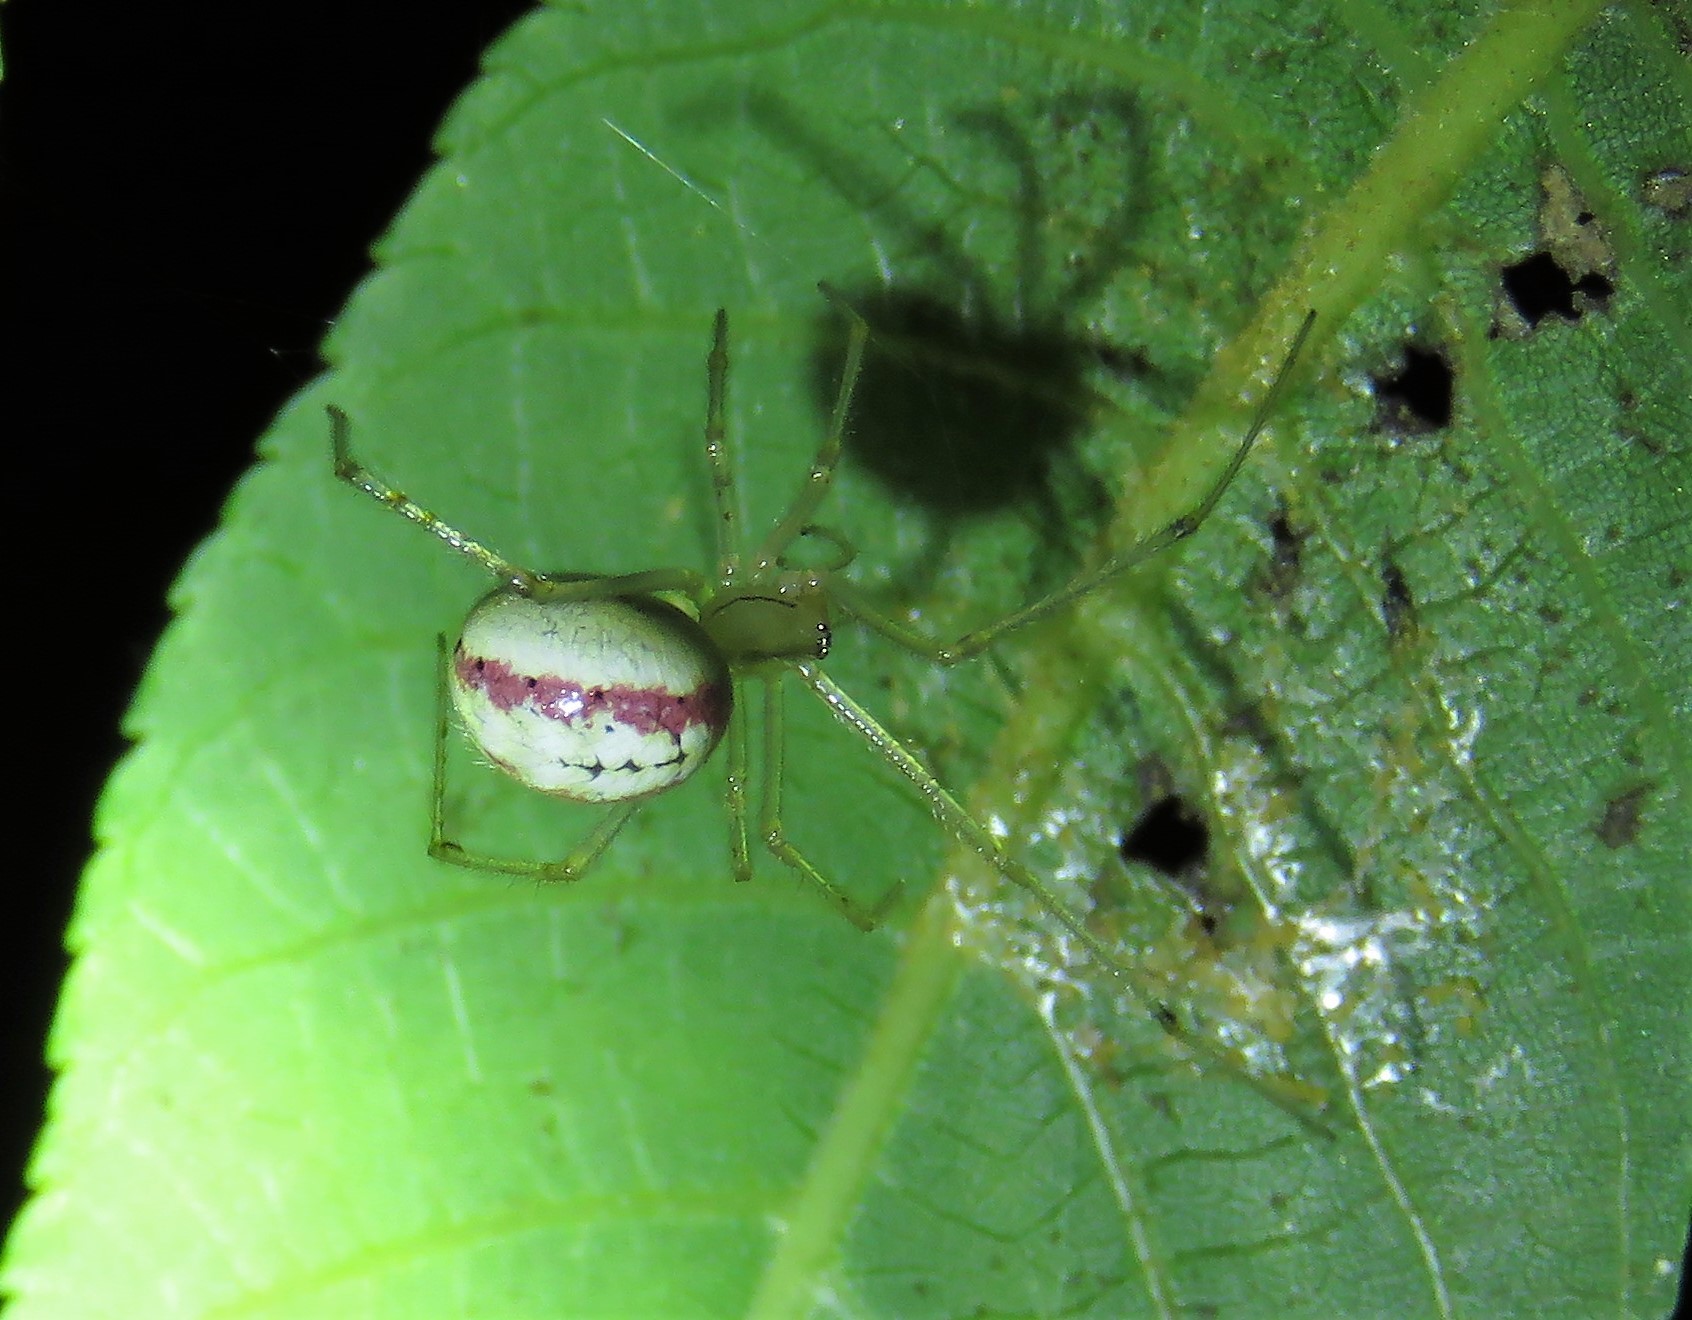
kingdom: Animalia
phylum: Arthropoda
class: Arachnida
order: Araneae
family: Theridiidae
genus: Enoplognatha
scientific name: Enoplognatha ovata
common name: Common candy-striped spider
